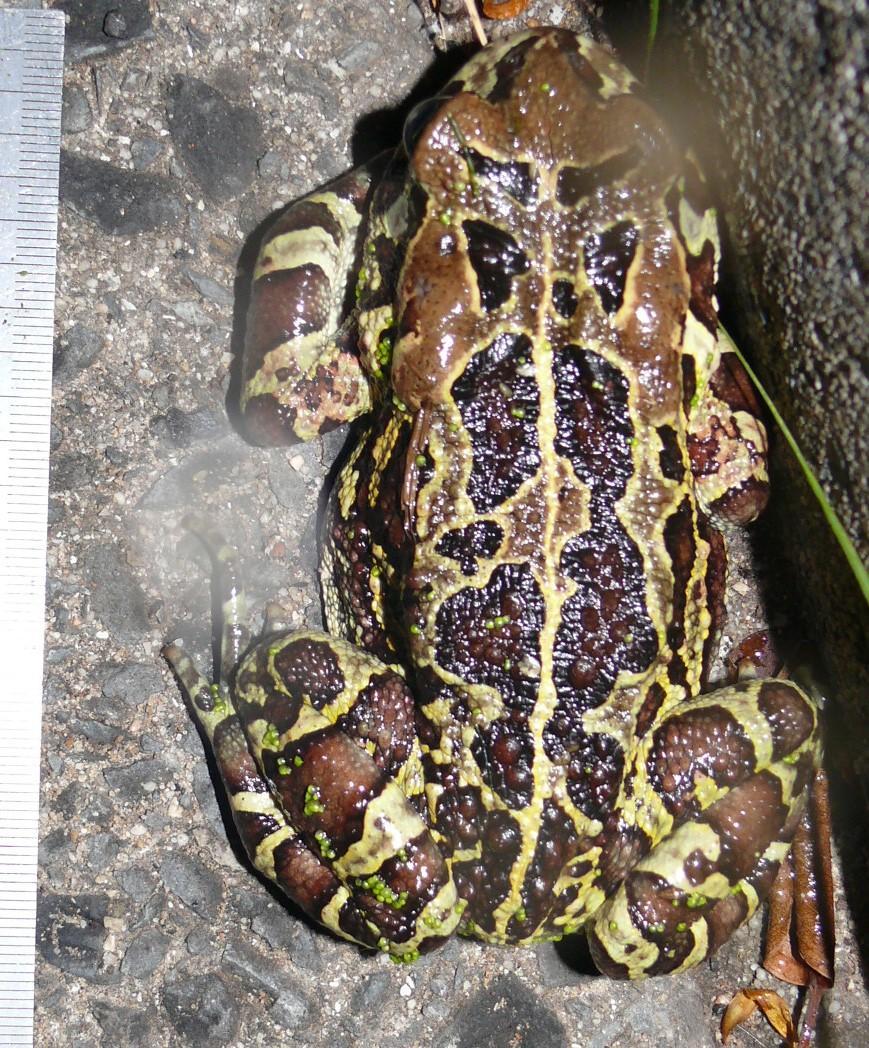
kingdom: Animalia
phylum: Chordata
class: Amphibia
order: Anura
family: Bufonidae
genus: Sclerophrys
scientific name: Sclerophrys pantherina
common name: Panther toad
